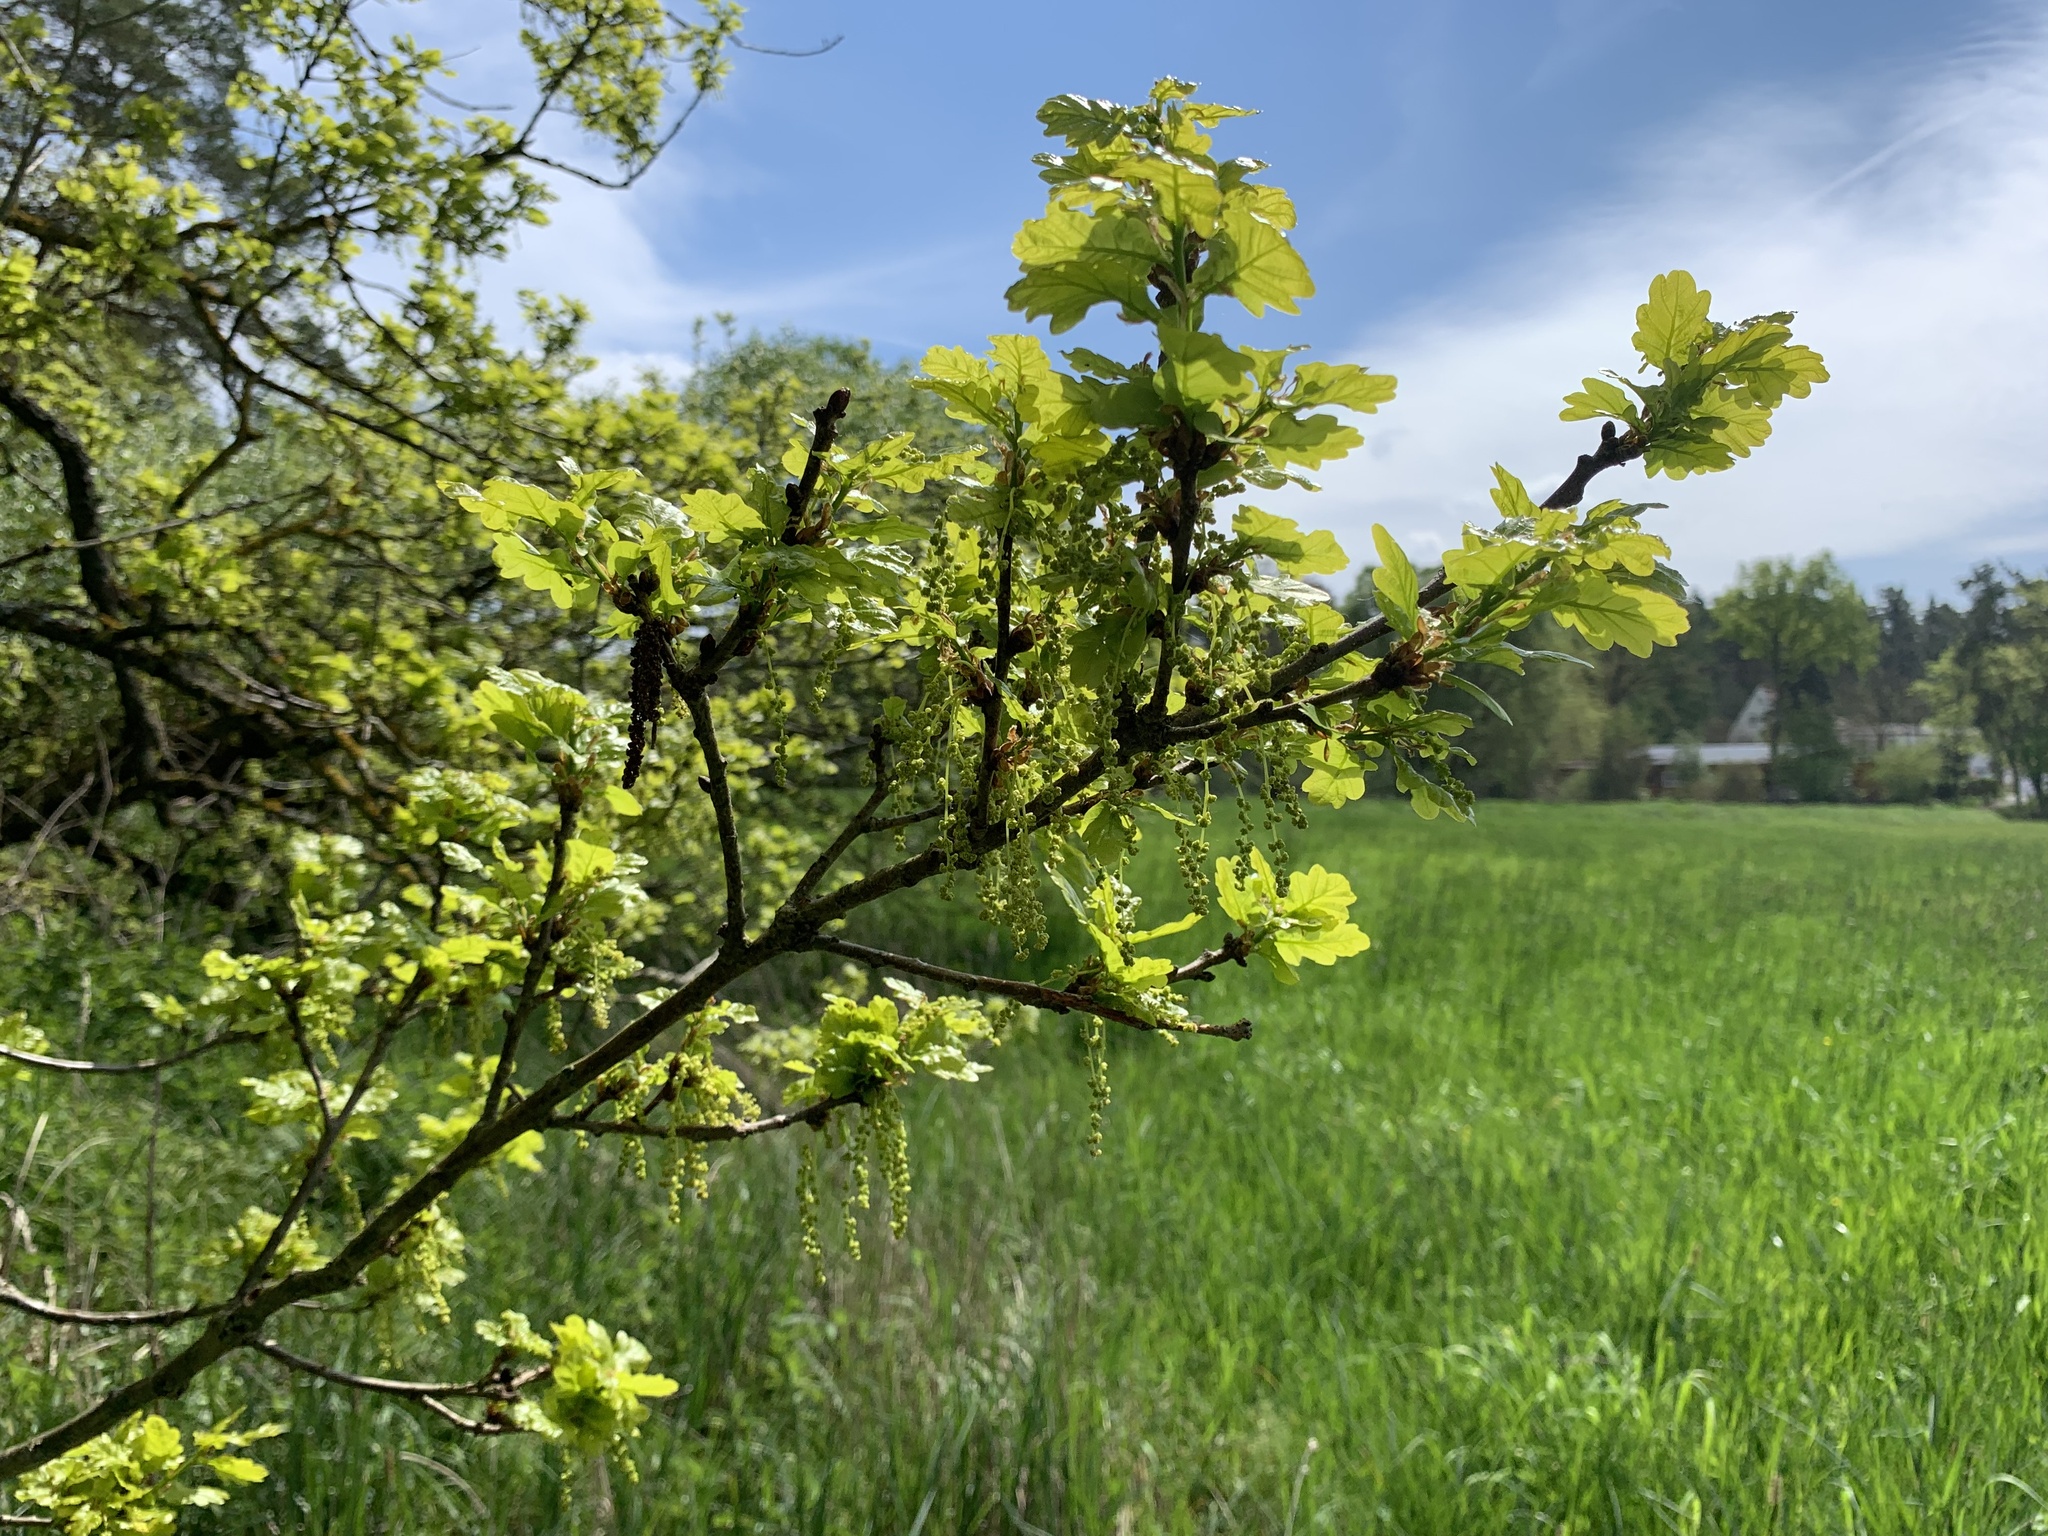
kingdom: Plantae
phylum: Tracheophyta
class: Magnoliopsida
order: Fagales
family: Fagaceae
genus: Quercus
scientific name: Quercus robur
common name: Pedunculate oak
